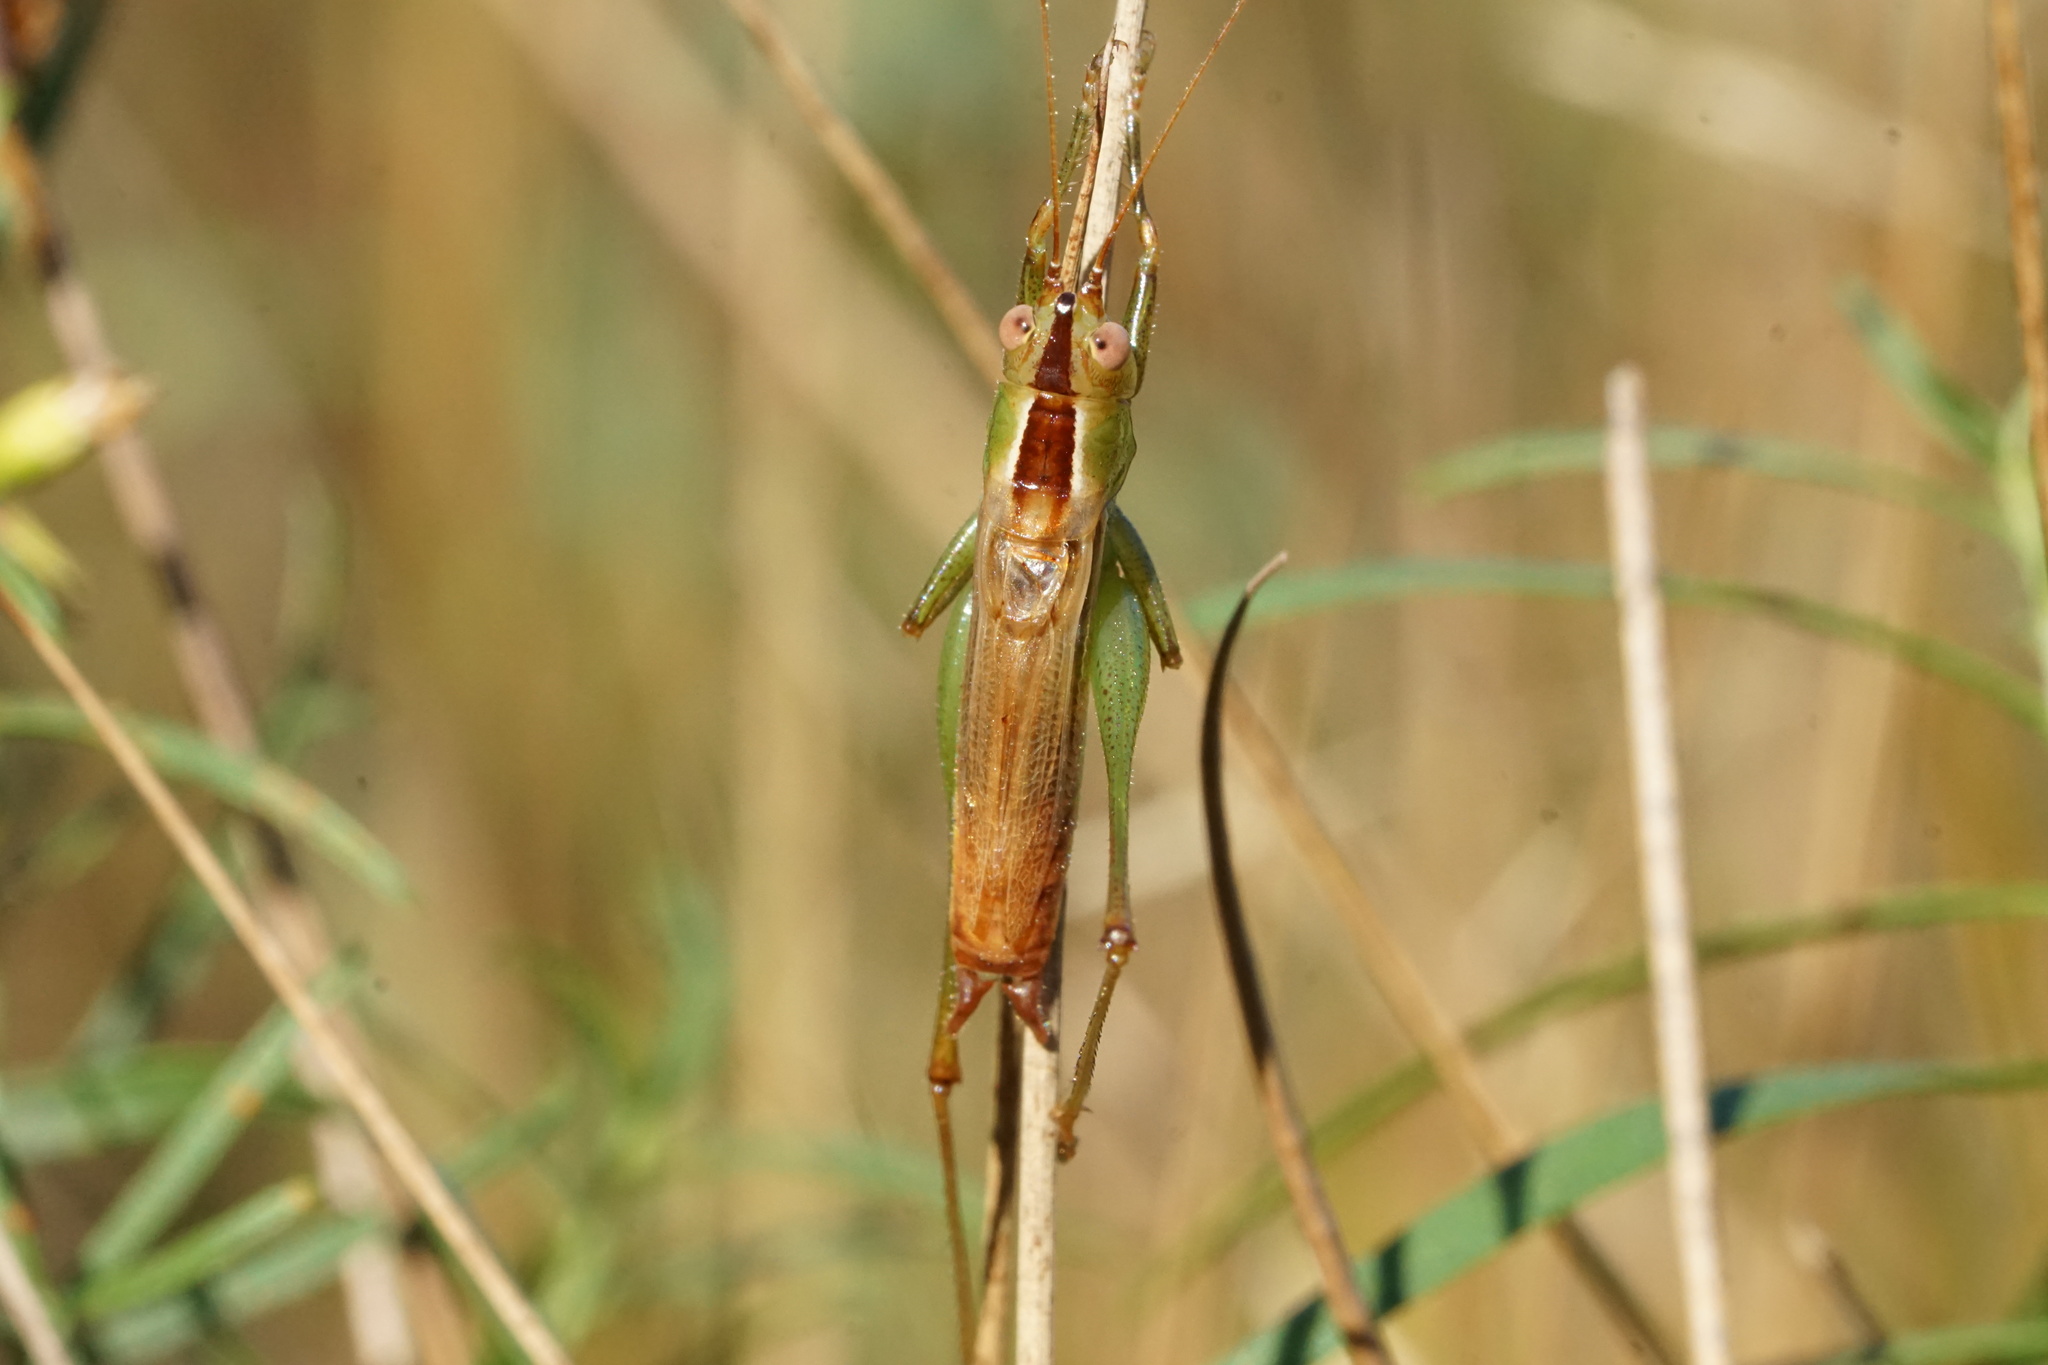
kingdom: Animalia
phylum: Arthropoda
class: Insecta
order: Orthoptera
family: Tettigoniidae
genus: Conocephalus
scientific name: Conocephalus brevipennis
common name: Short-winged meadow katydid
